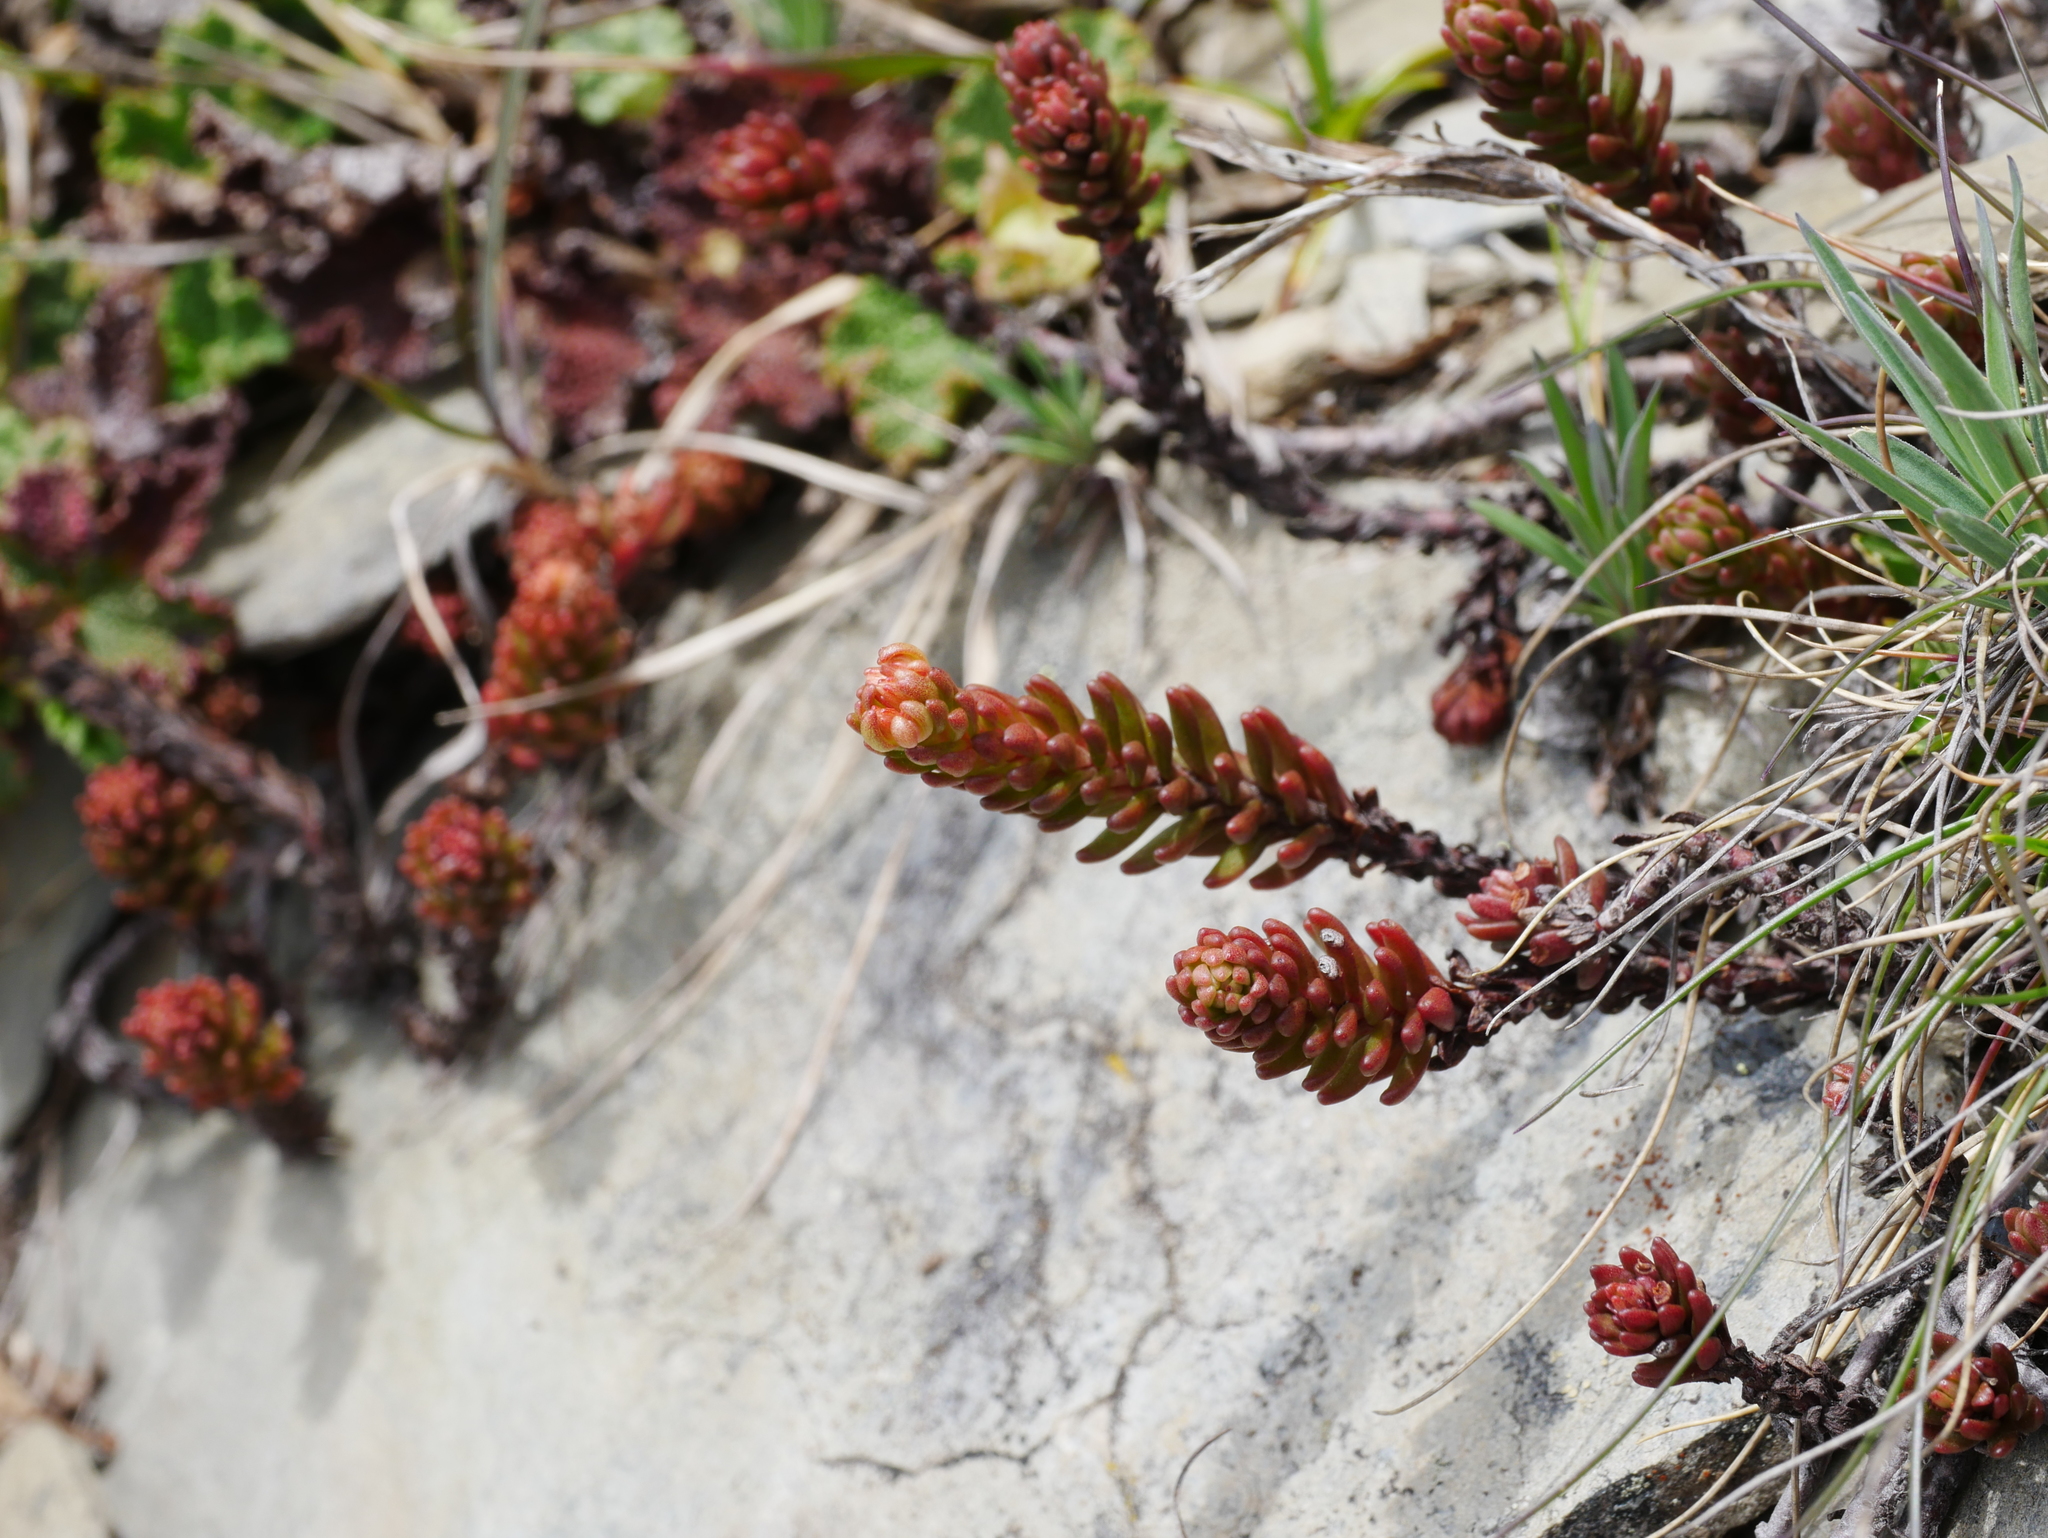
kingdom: Plantae
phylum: Tracheophyta
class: Magnoliopsida
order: Saxifragales
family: Crassulaceae
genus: Sedum
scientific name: Sedum morrisonense
